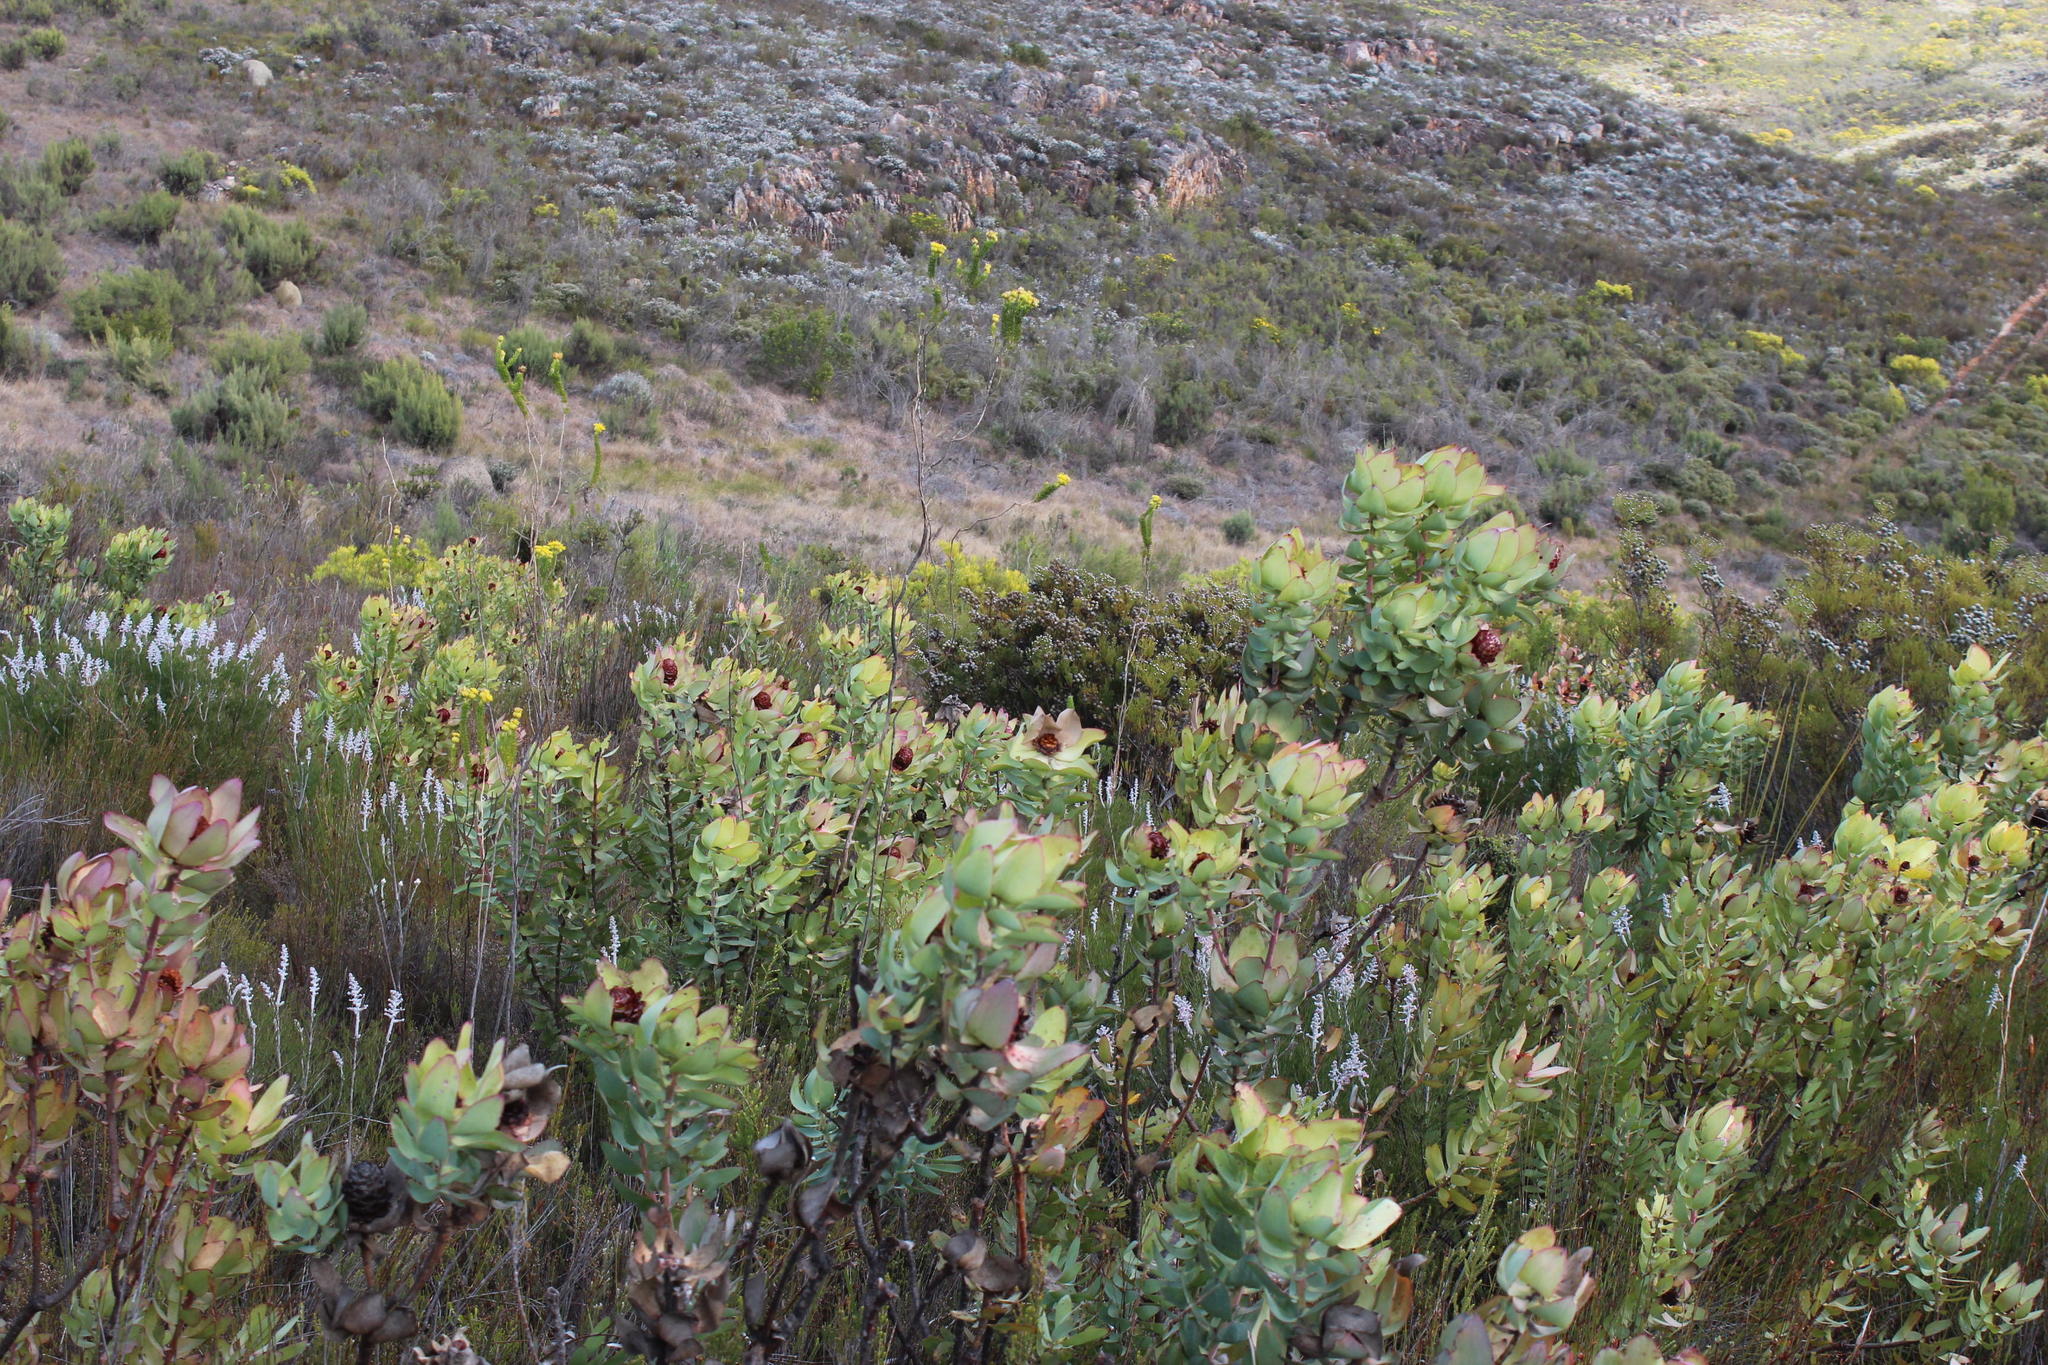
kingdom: Plantae
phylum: Tracheophyta
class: Magnoliopsida
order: Proteales
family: Proteaceae
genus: Leucadendron
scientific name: Leucadendron tinctum
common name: Spicy conebush
